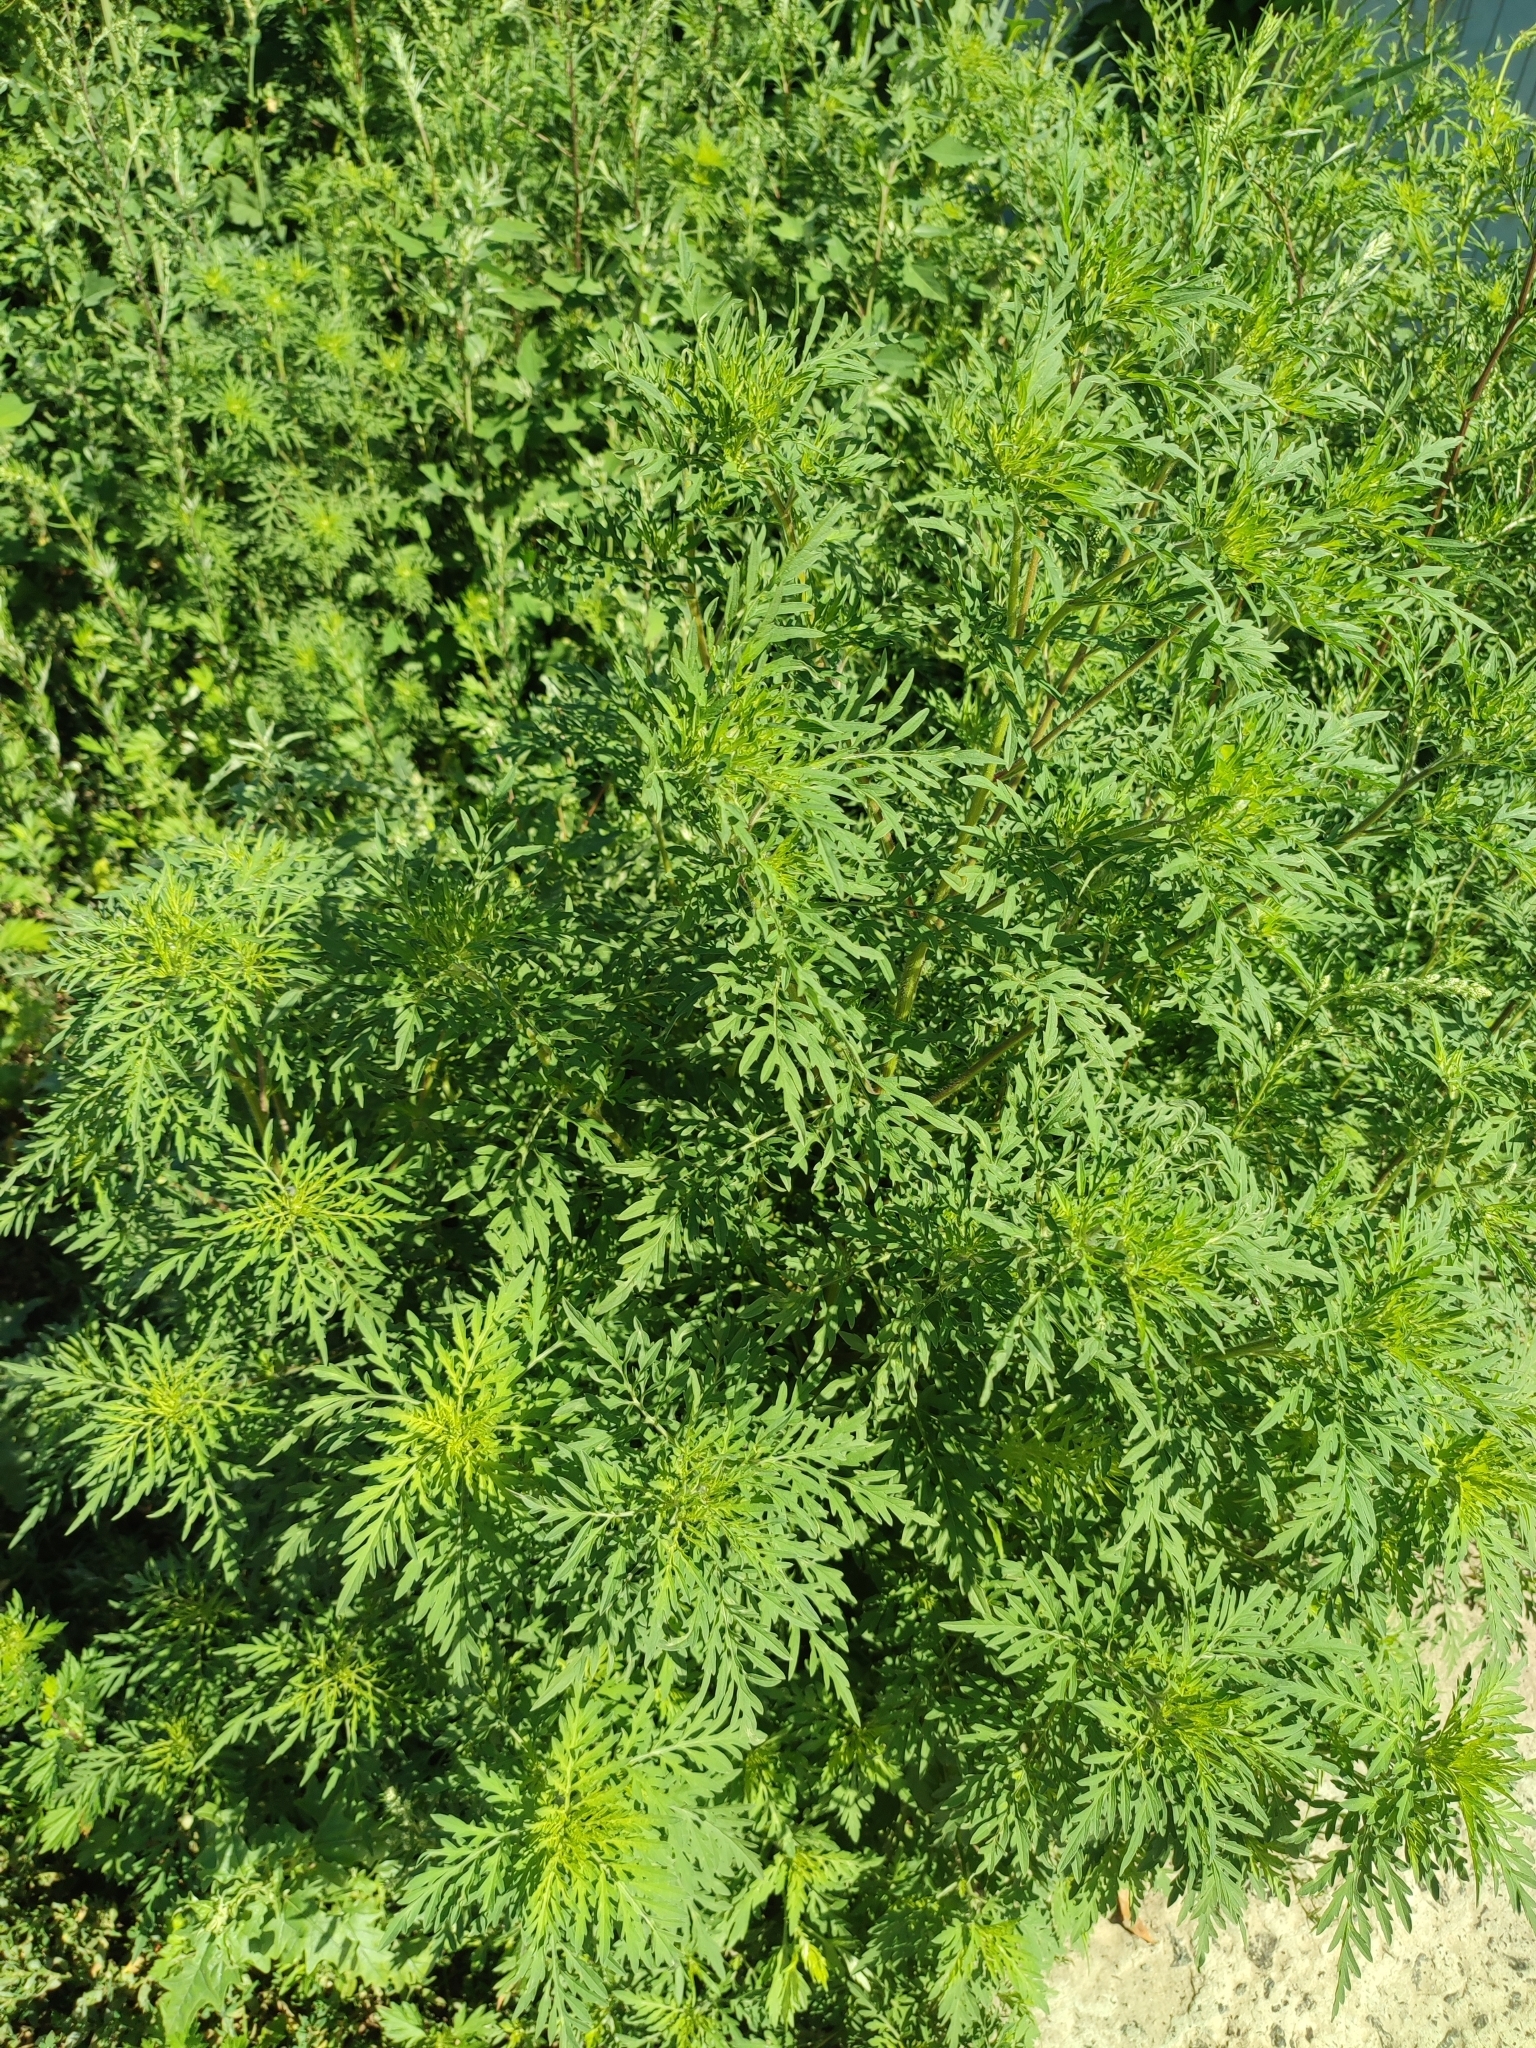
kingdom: Plantae
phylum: Tracheophyta
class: Magnoliopsida
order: Asterales
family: Asteraceae
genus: Ambrosia
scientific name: Ambrosia artemisiifolia
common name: Annual ragweed
